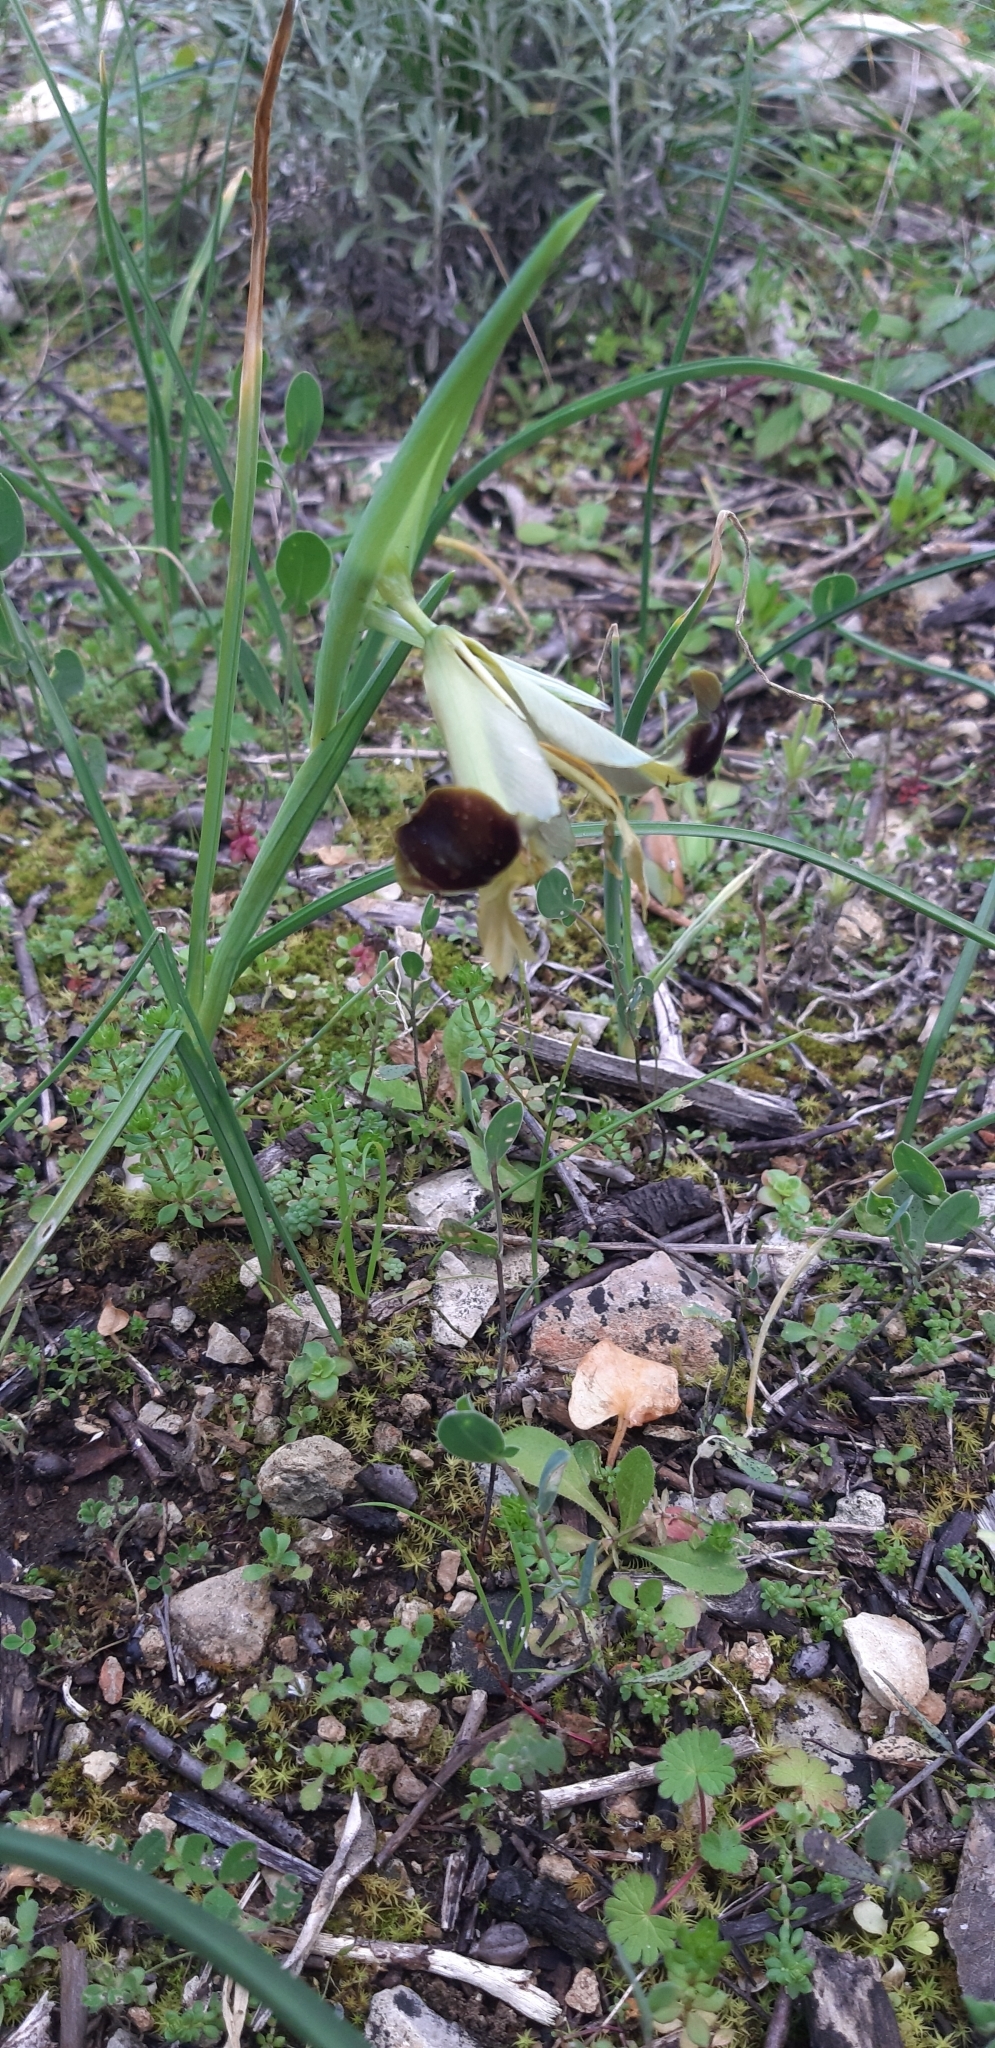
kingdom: Plantae
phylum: Tracheophyta
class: Liliopsida
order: Asparagales
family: Iridaceae
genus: Iris
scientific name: Iris tuberosa
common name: Snake's-head iris
